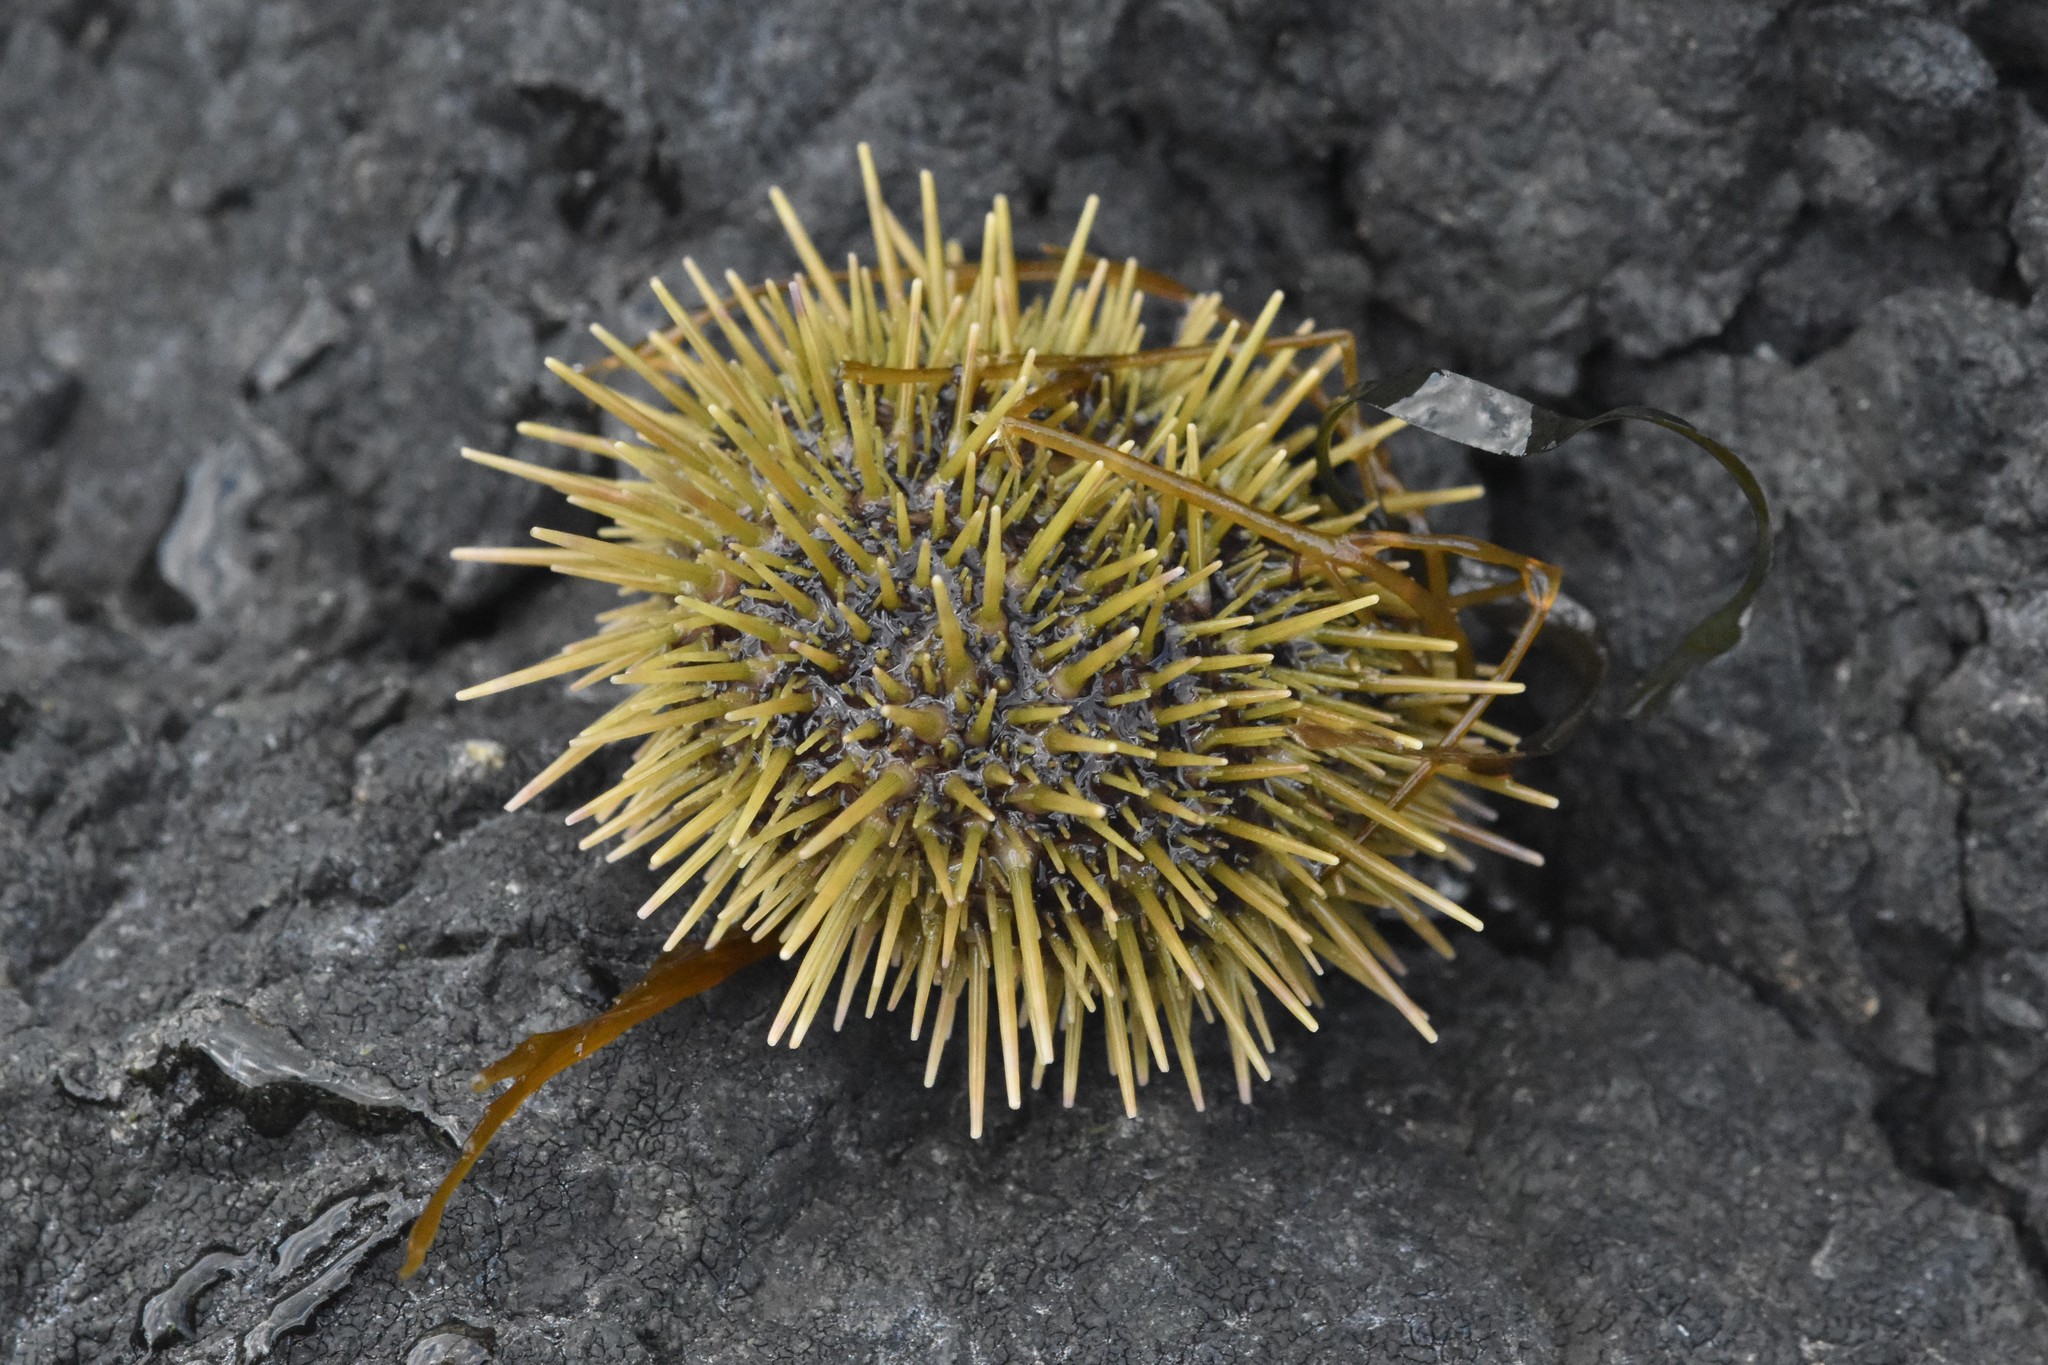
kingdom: Animalia
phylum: Echinodermata
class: Echinoidea
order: Camarodonta
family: Strongylocentrotidae
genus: Strongylocentrotus
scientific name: Strongylocentrotus droebachiensis
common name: Northern sea urchin
